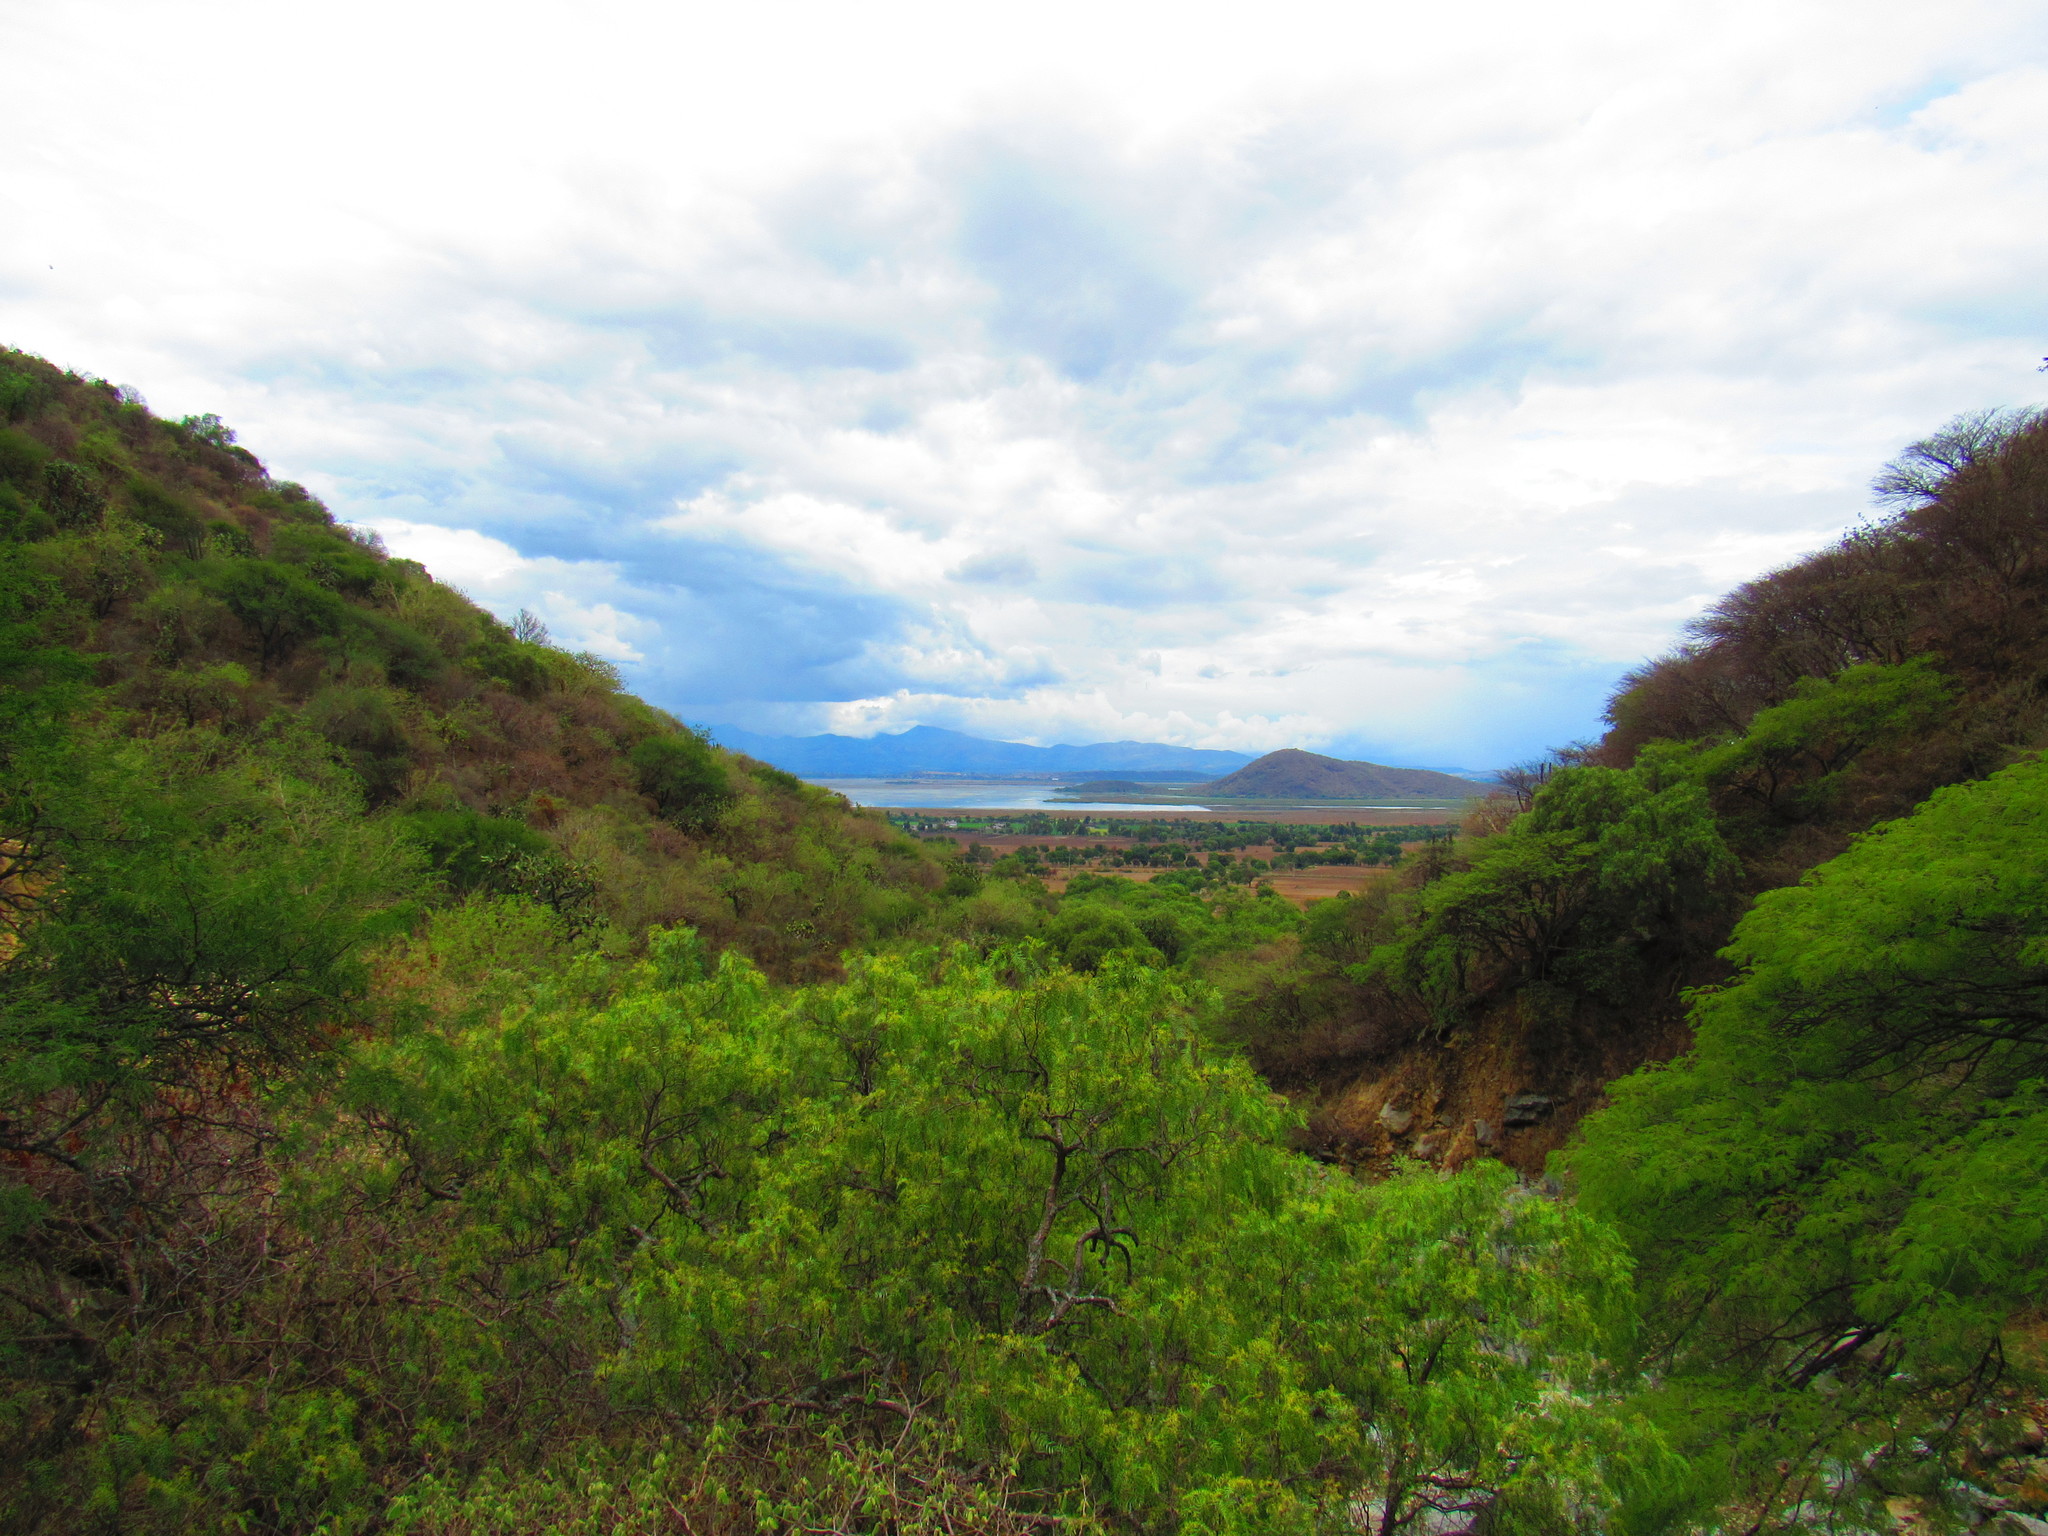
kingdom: Plantae
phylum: Tracheophyta
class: Magnoliopsida
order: Sapindales
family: Anacardiaceae
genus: Schinus
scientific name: Schinus molle
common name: Peruvian peppertree
